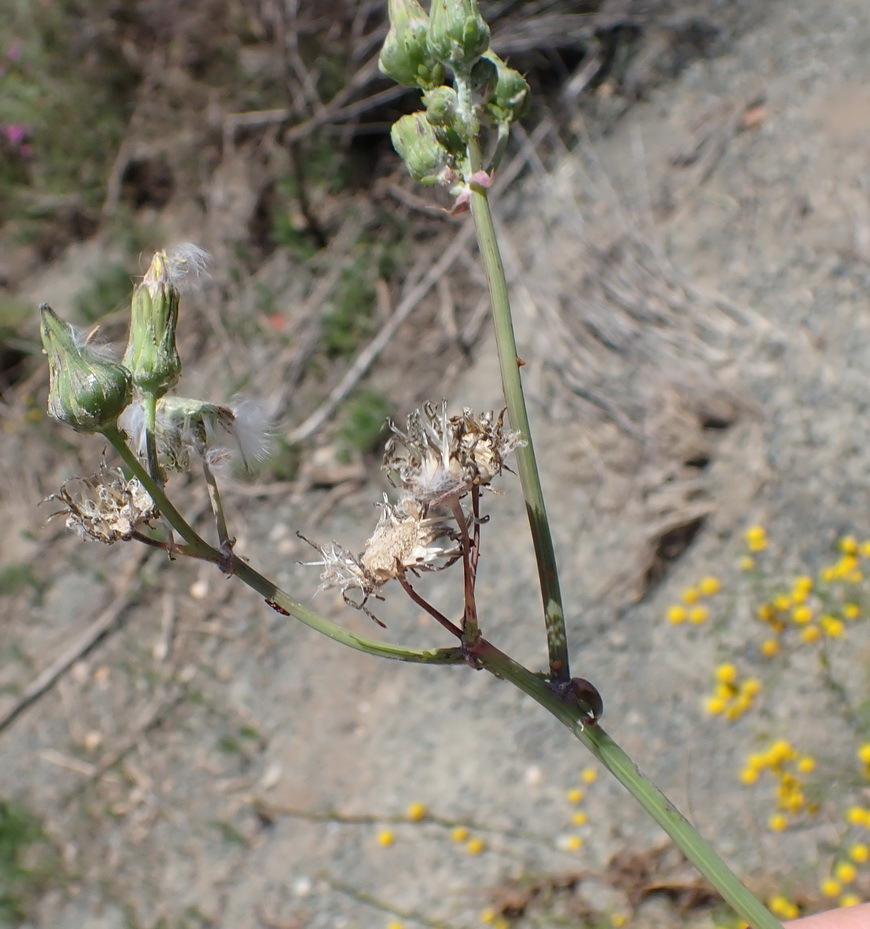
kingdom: Plantae
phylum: Tracheophyta
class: Magnoliopsida
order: Asterales
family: Asteraceae
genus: Sonchus
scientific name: Sonchus oleraceus
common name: Common sowthistle
